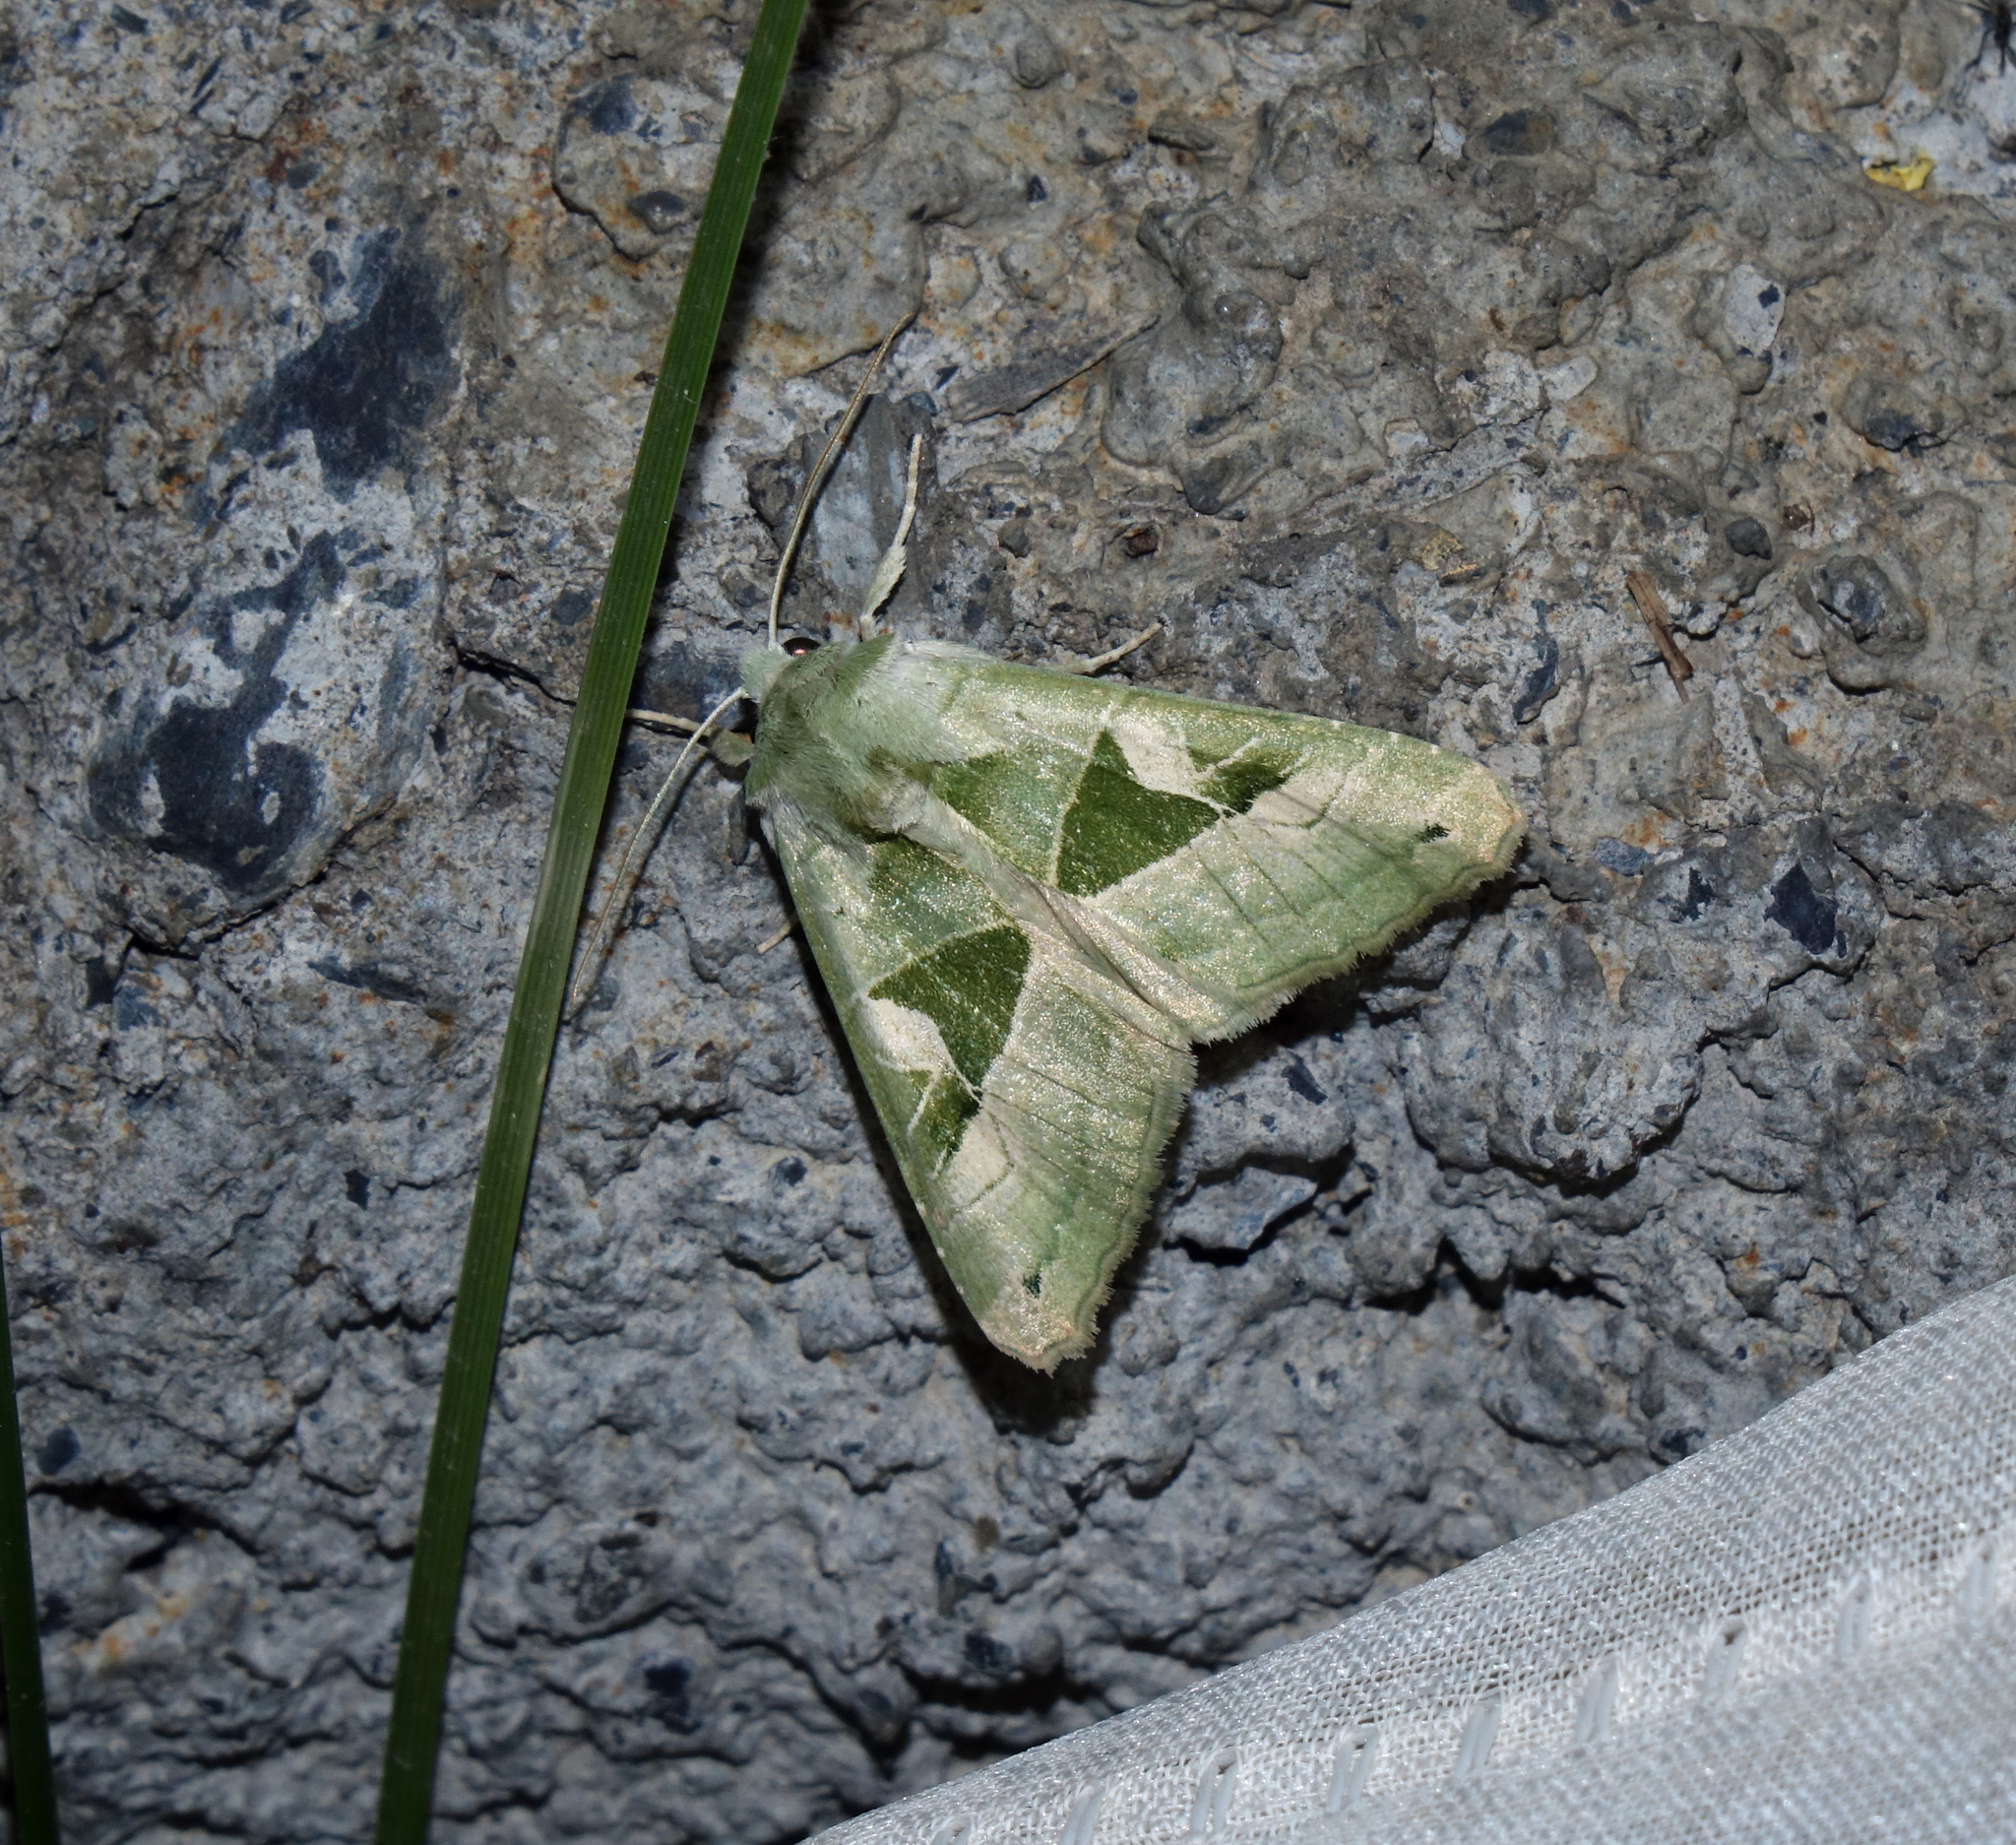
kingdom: Animalia
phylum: Arthropoda
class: Insecta
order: Lepidoptera
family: Noctuidae
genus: Phlogophora
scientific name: Phlogophora scita
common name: Green angle shades
